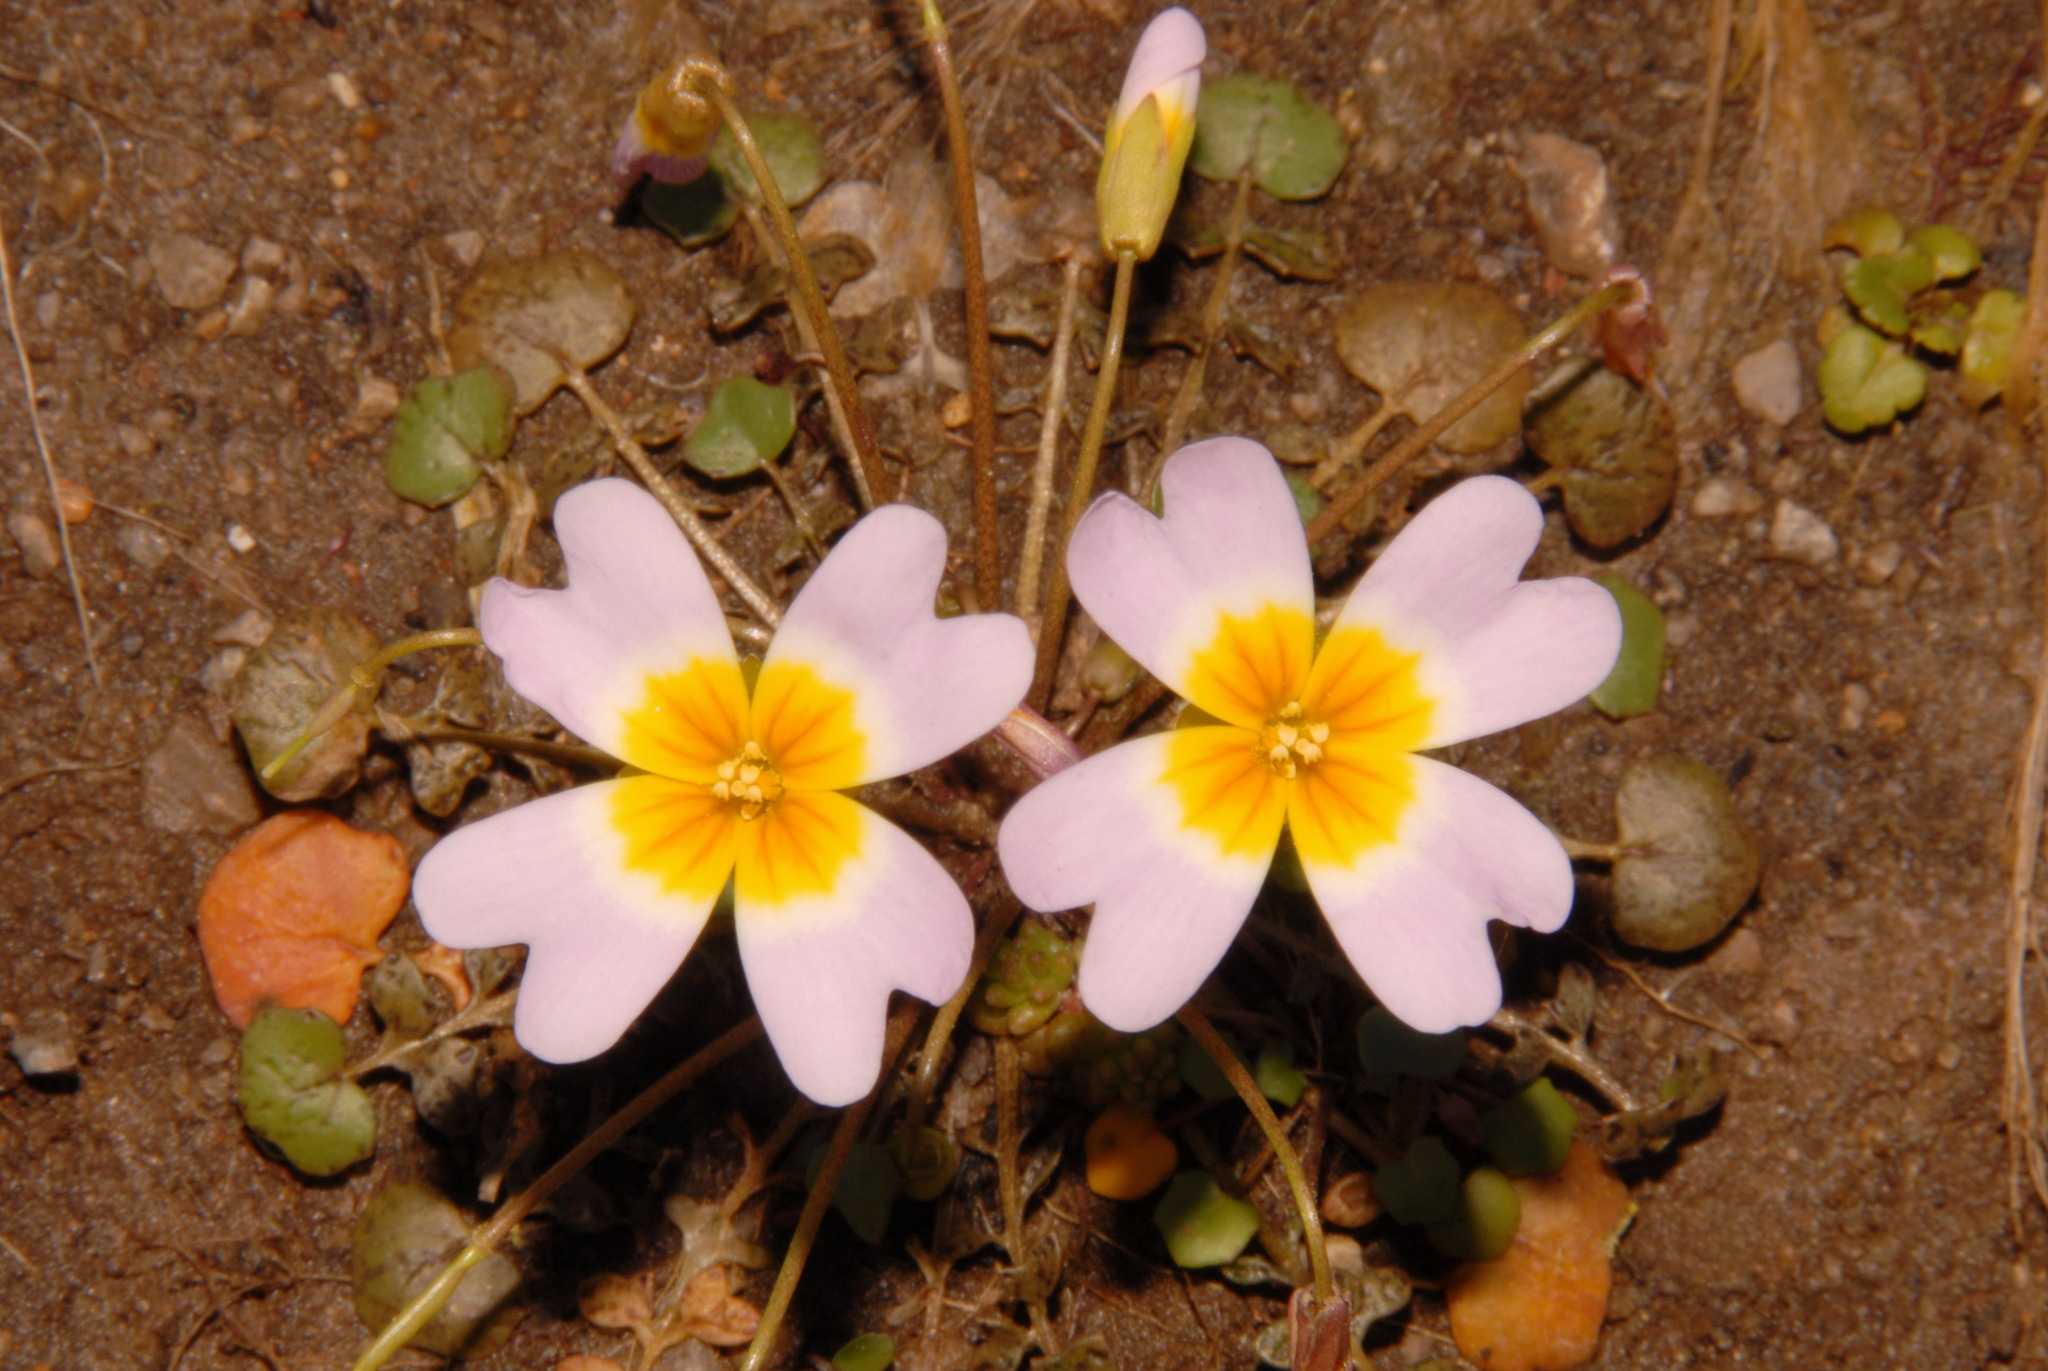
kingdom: Plantae
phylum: Tracheophyta
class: Magnoliopsida
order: Brassicales
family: Brassicaceae
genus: Leavenworthia
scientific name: Leavenworthia stylosa
